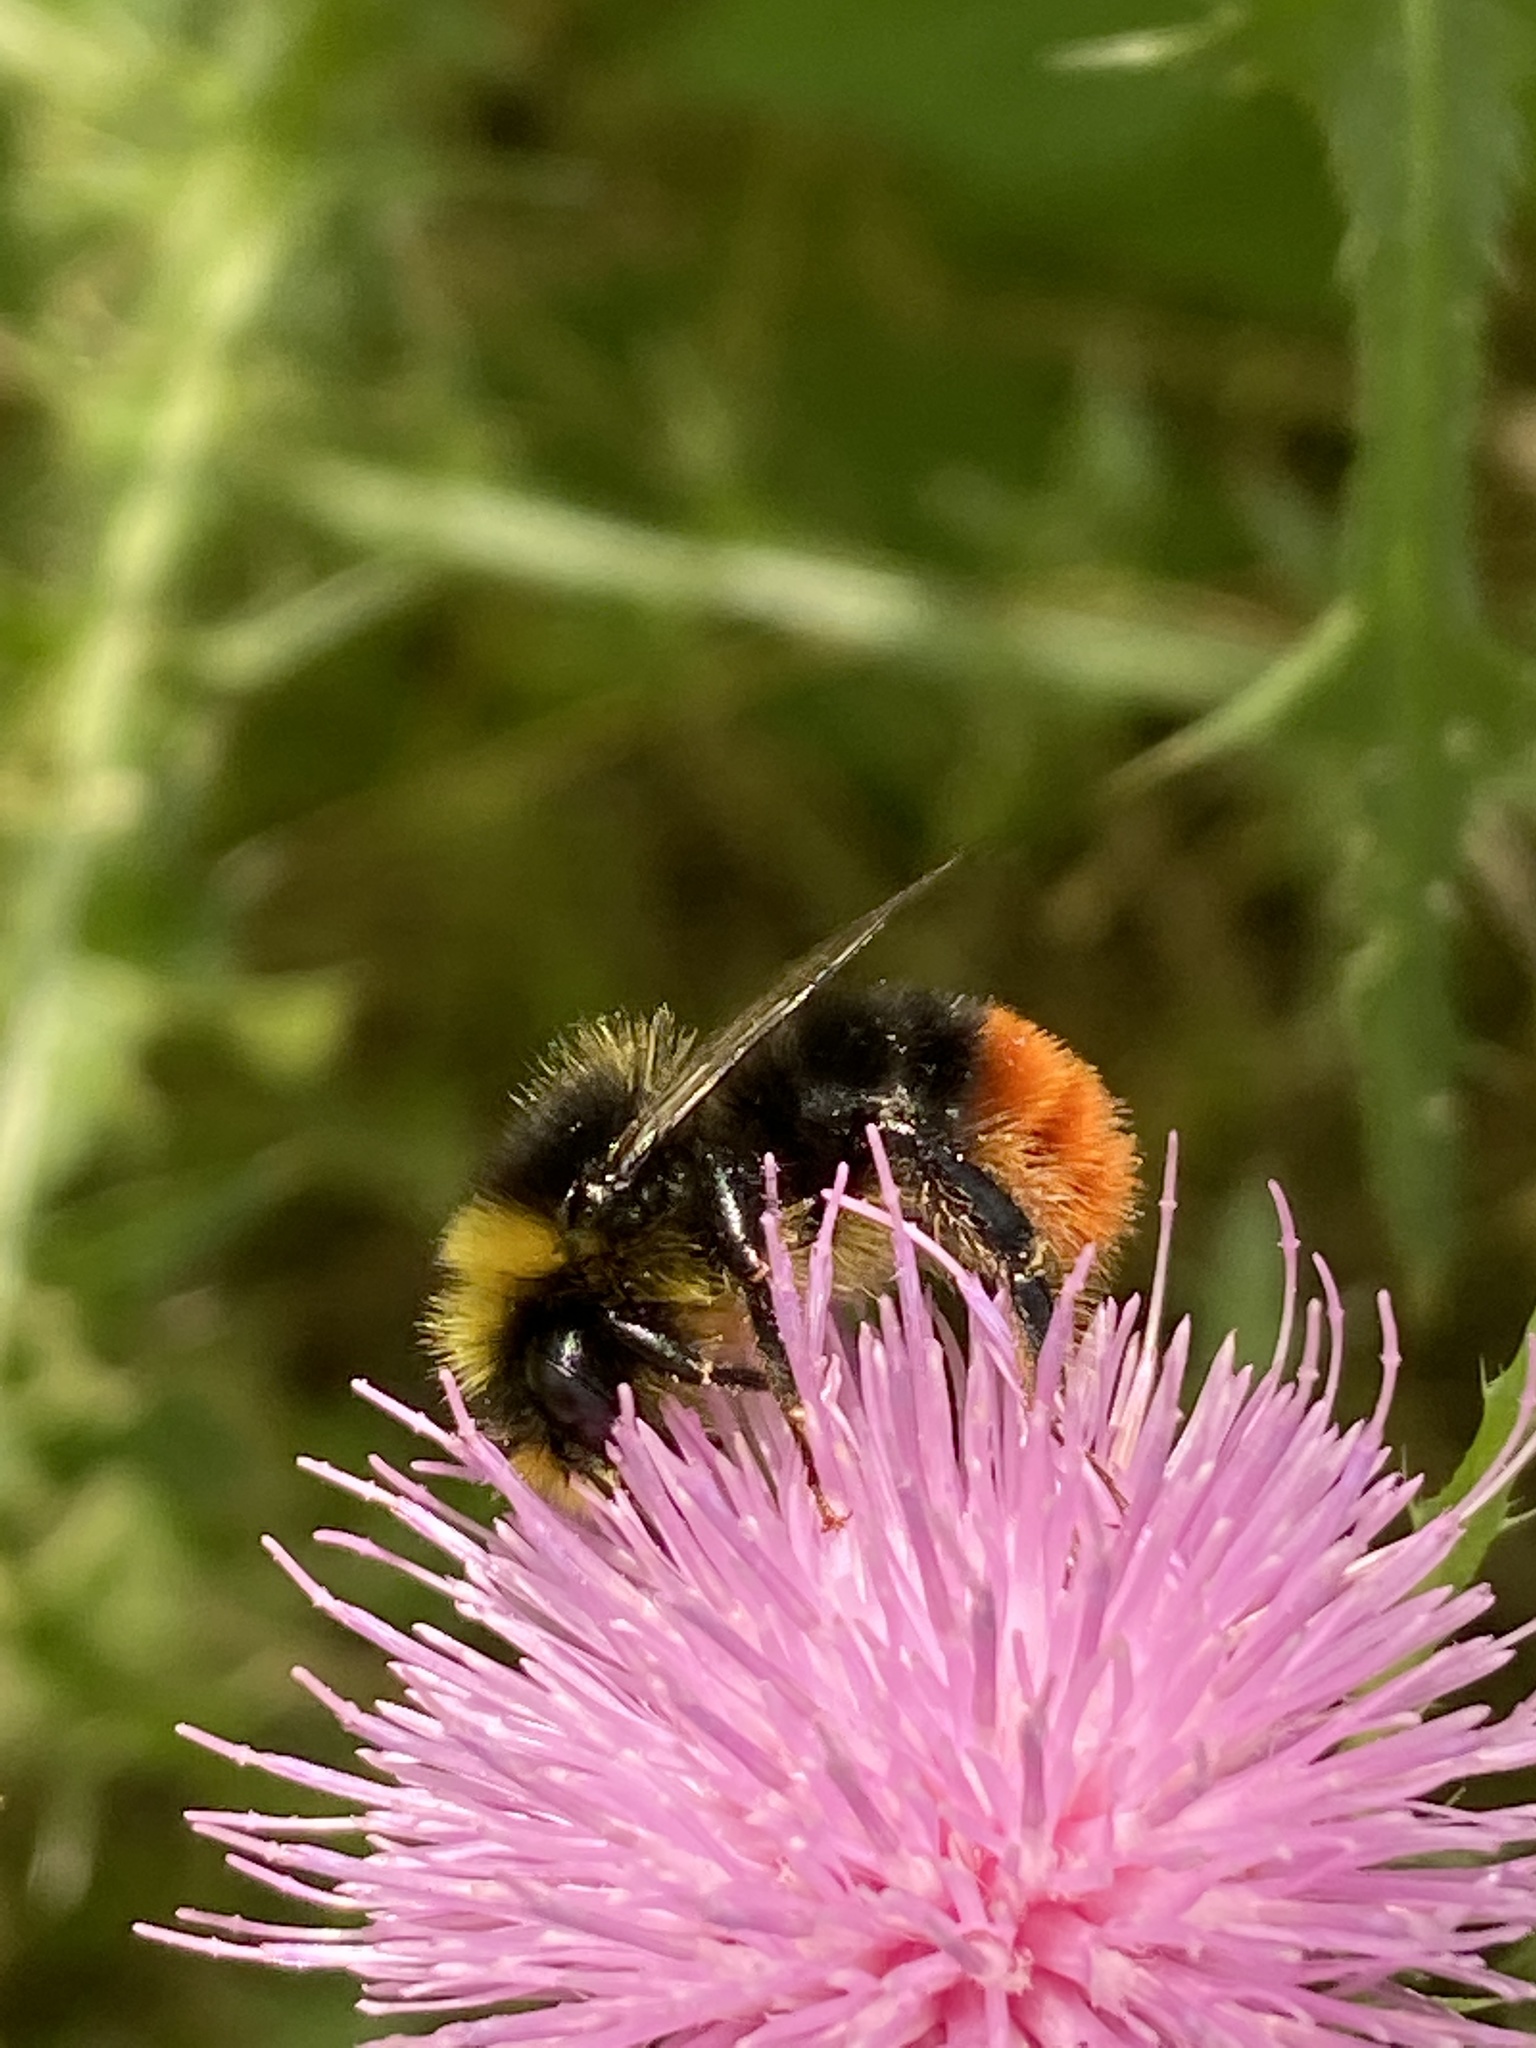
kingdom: Animalia
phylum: Arthropoda
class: Insecta
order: Hymenoptera
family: Apidae
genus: Bombus
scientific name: Bombus lapidarius
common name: Large red-tailed humble-bee
